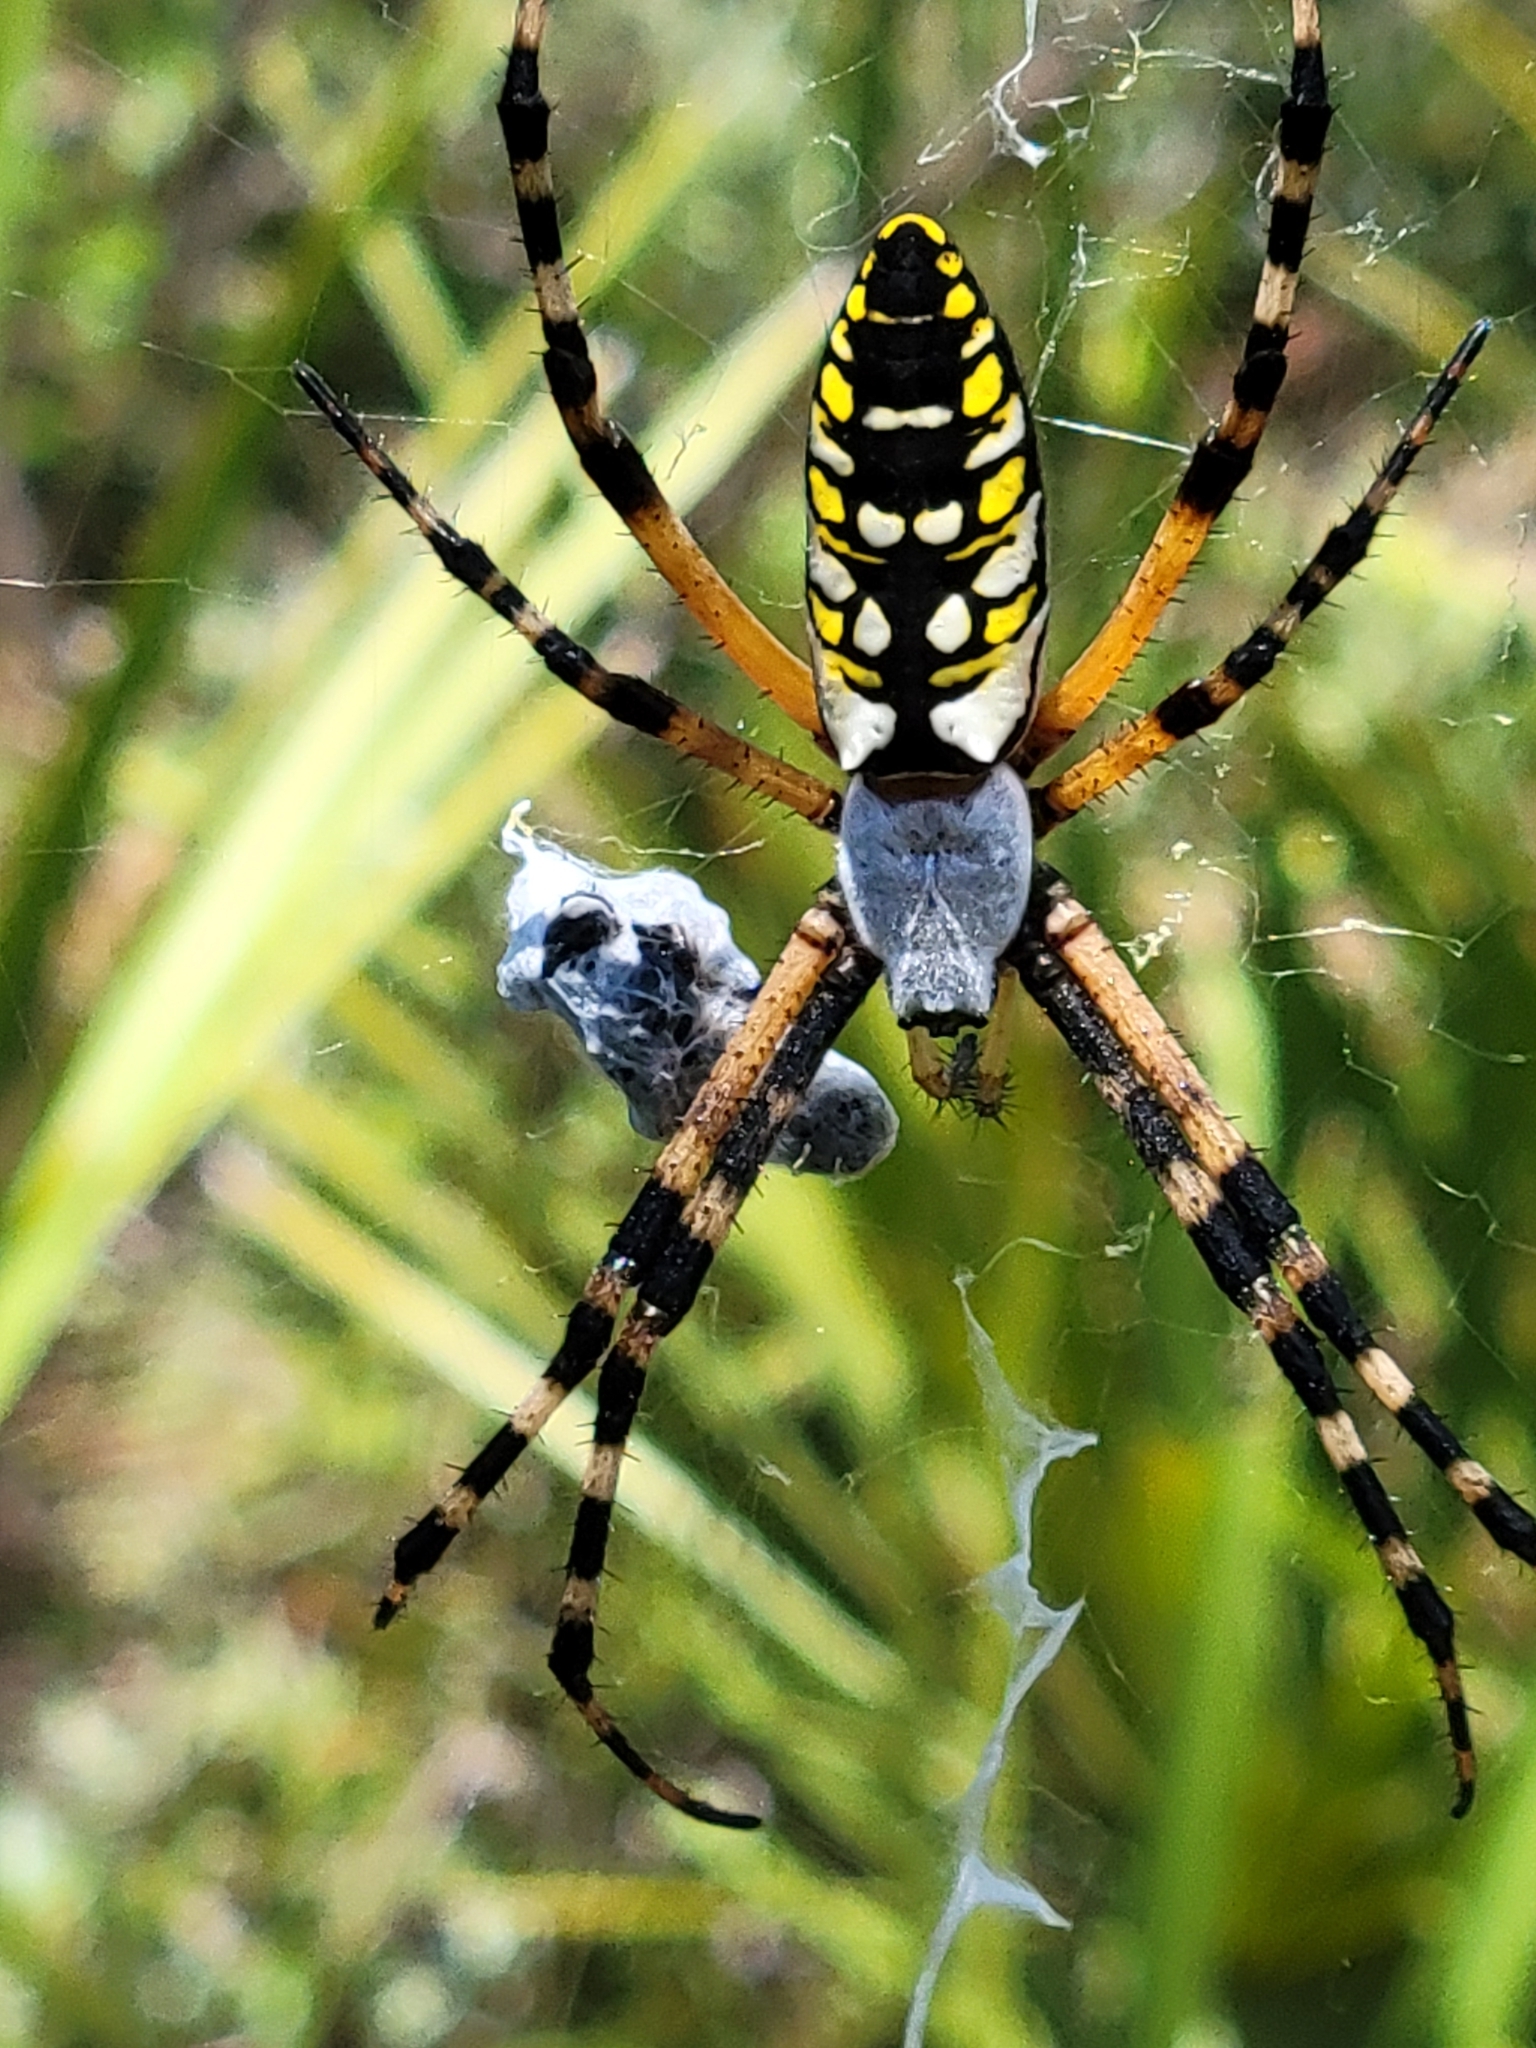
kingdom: Animalia
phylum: Arthropoda
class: Arachnida
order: Araneae
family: Araneidae
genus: Argiope
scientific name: Argiope aurantia
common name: Orb weavers
